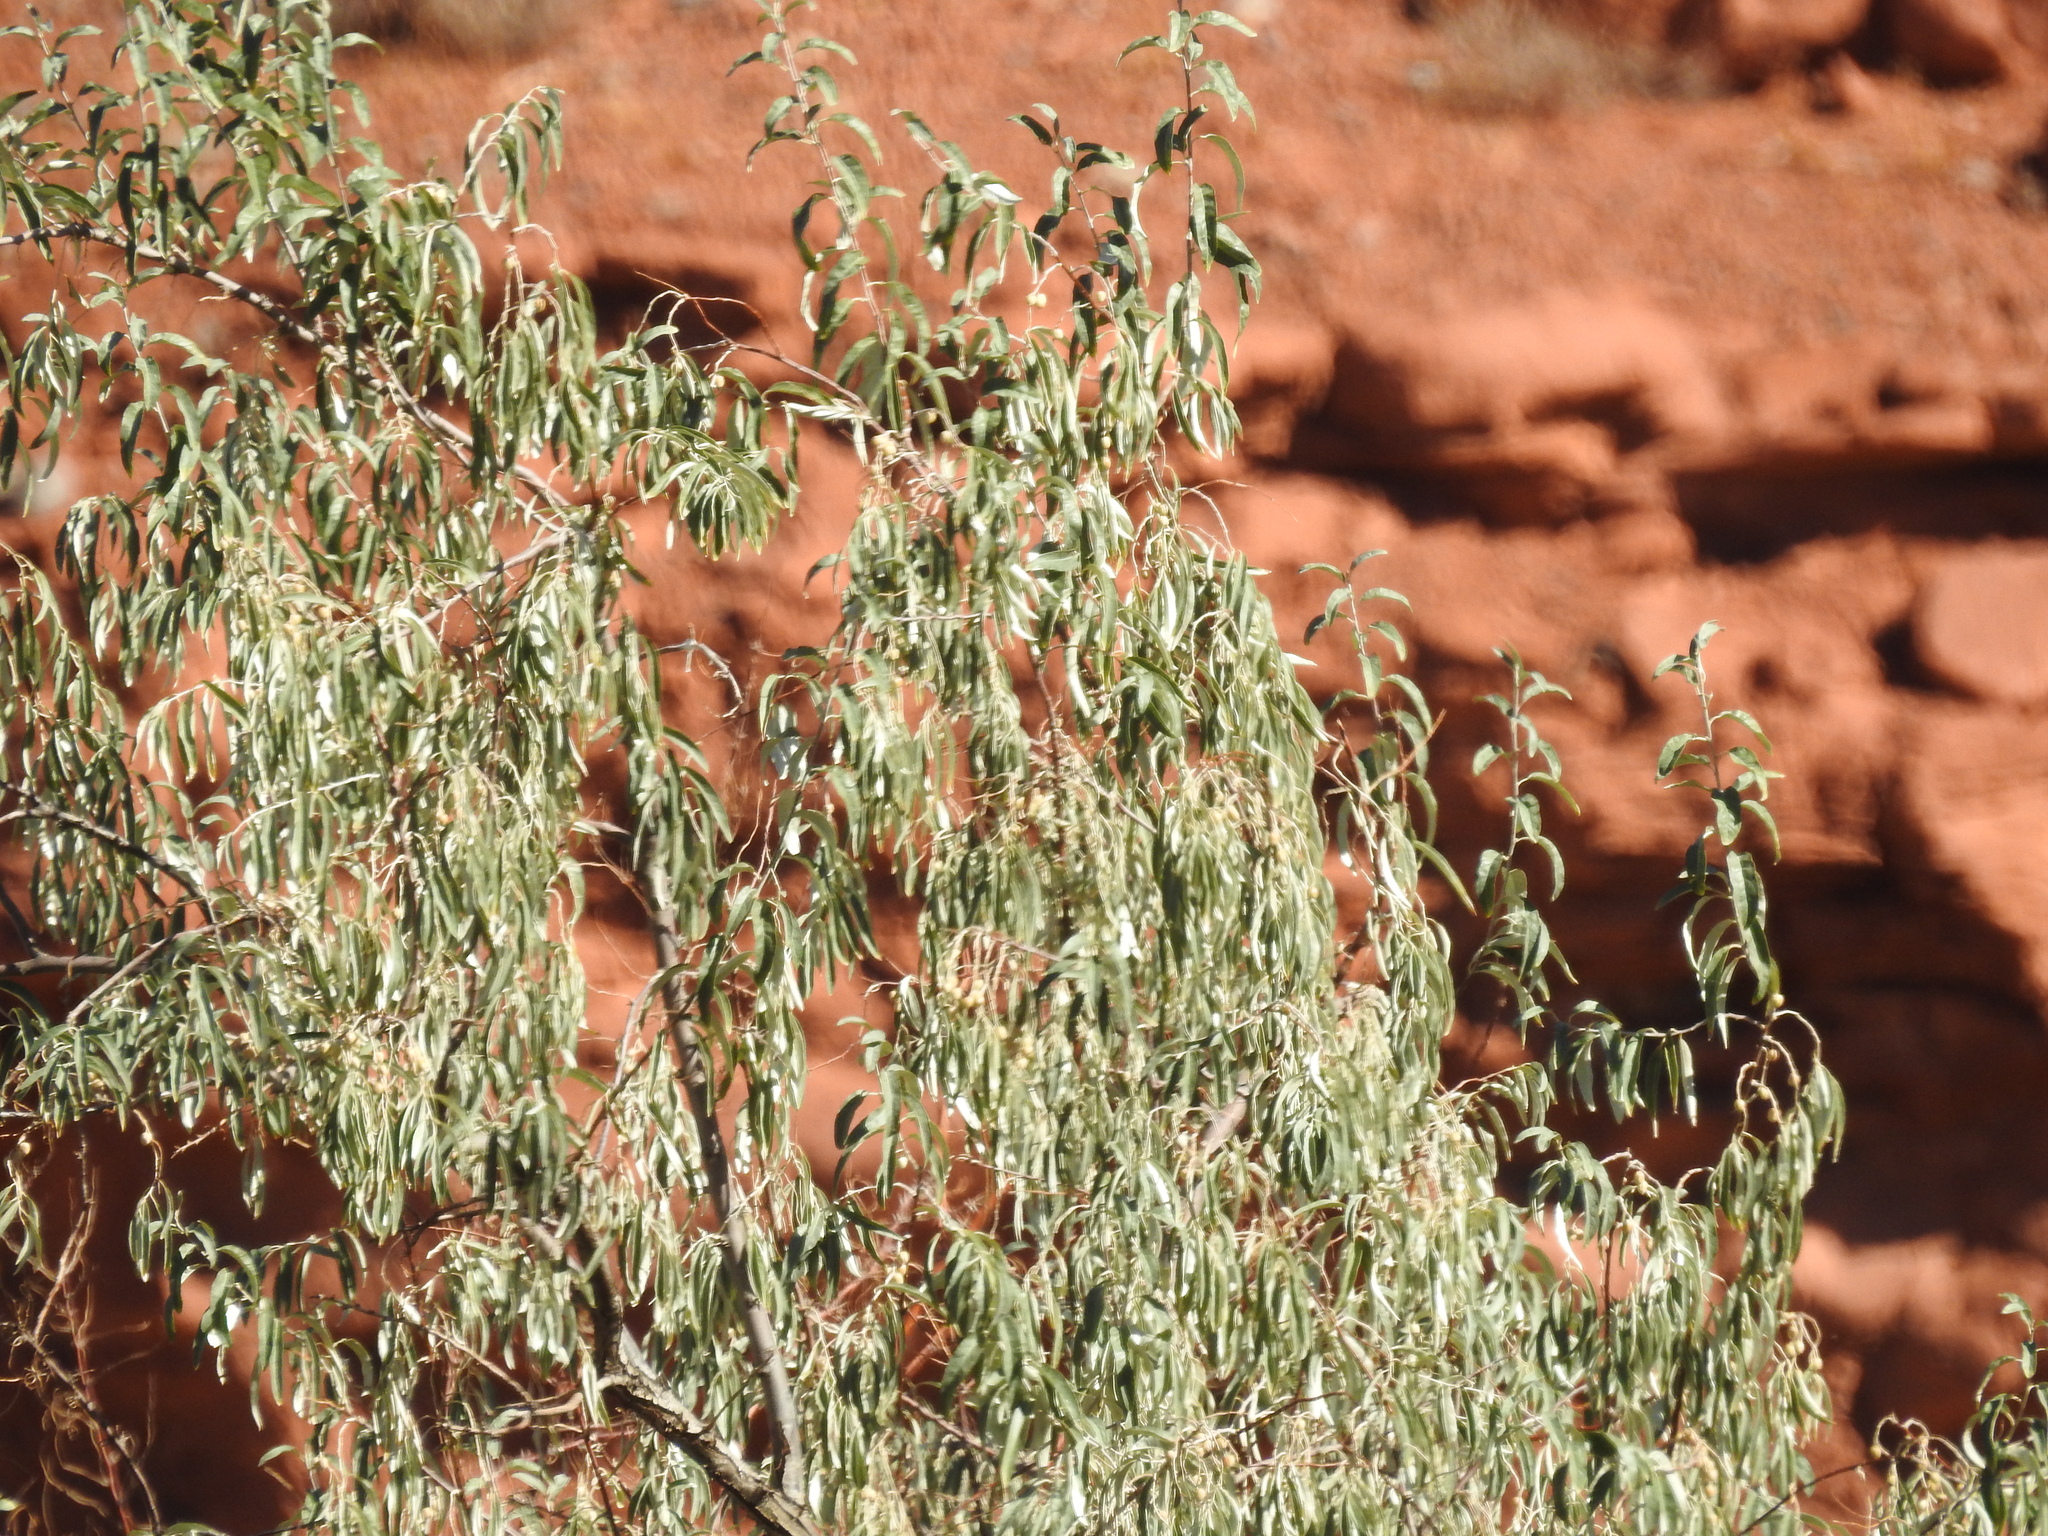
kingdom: Plantae
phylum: Tracheophyta
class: Magnoliopsida
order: Rosales
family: Elaeagnaceae
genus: Elaeagnus
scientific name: Elaeagnus angustifolia
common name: Russian olive
